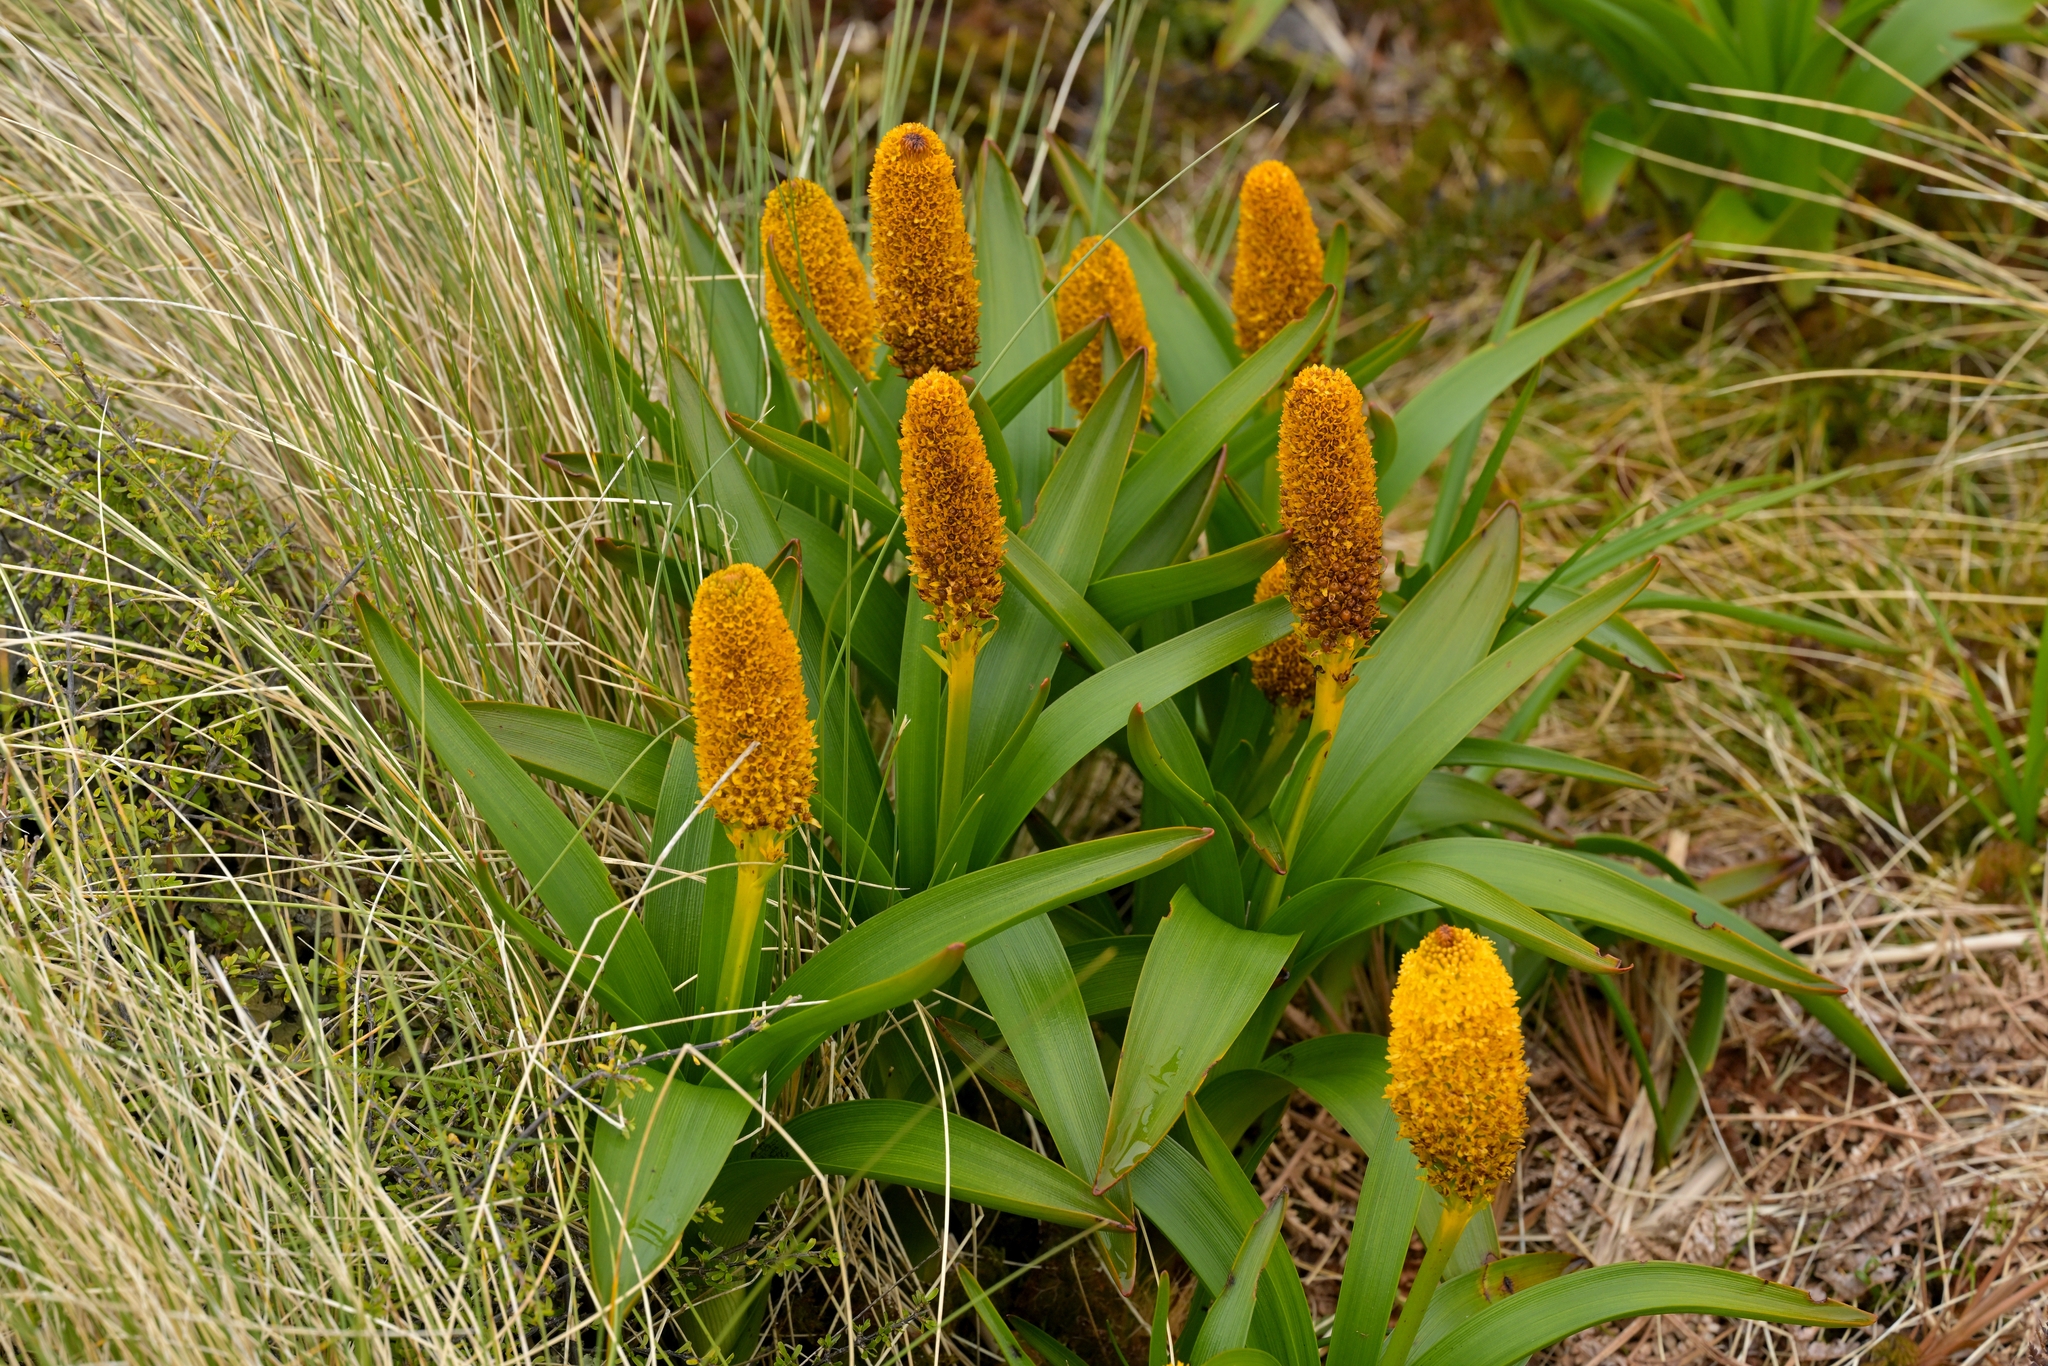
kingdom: Plantae
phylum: Tracheophyta
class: Liliopsida
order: Asparagales
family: Asphodelaceae
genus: Bulbinella
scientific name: Bulbinella rossii
